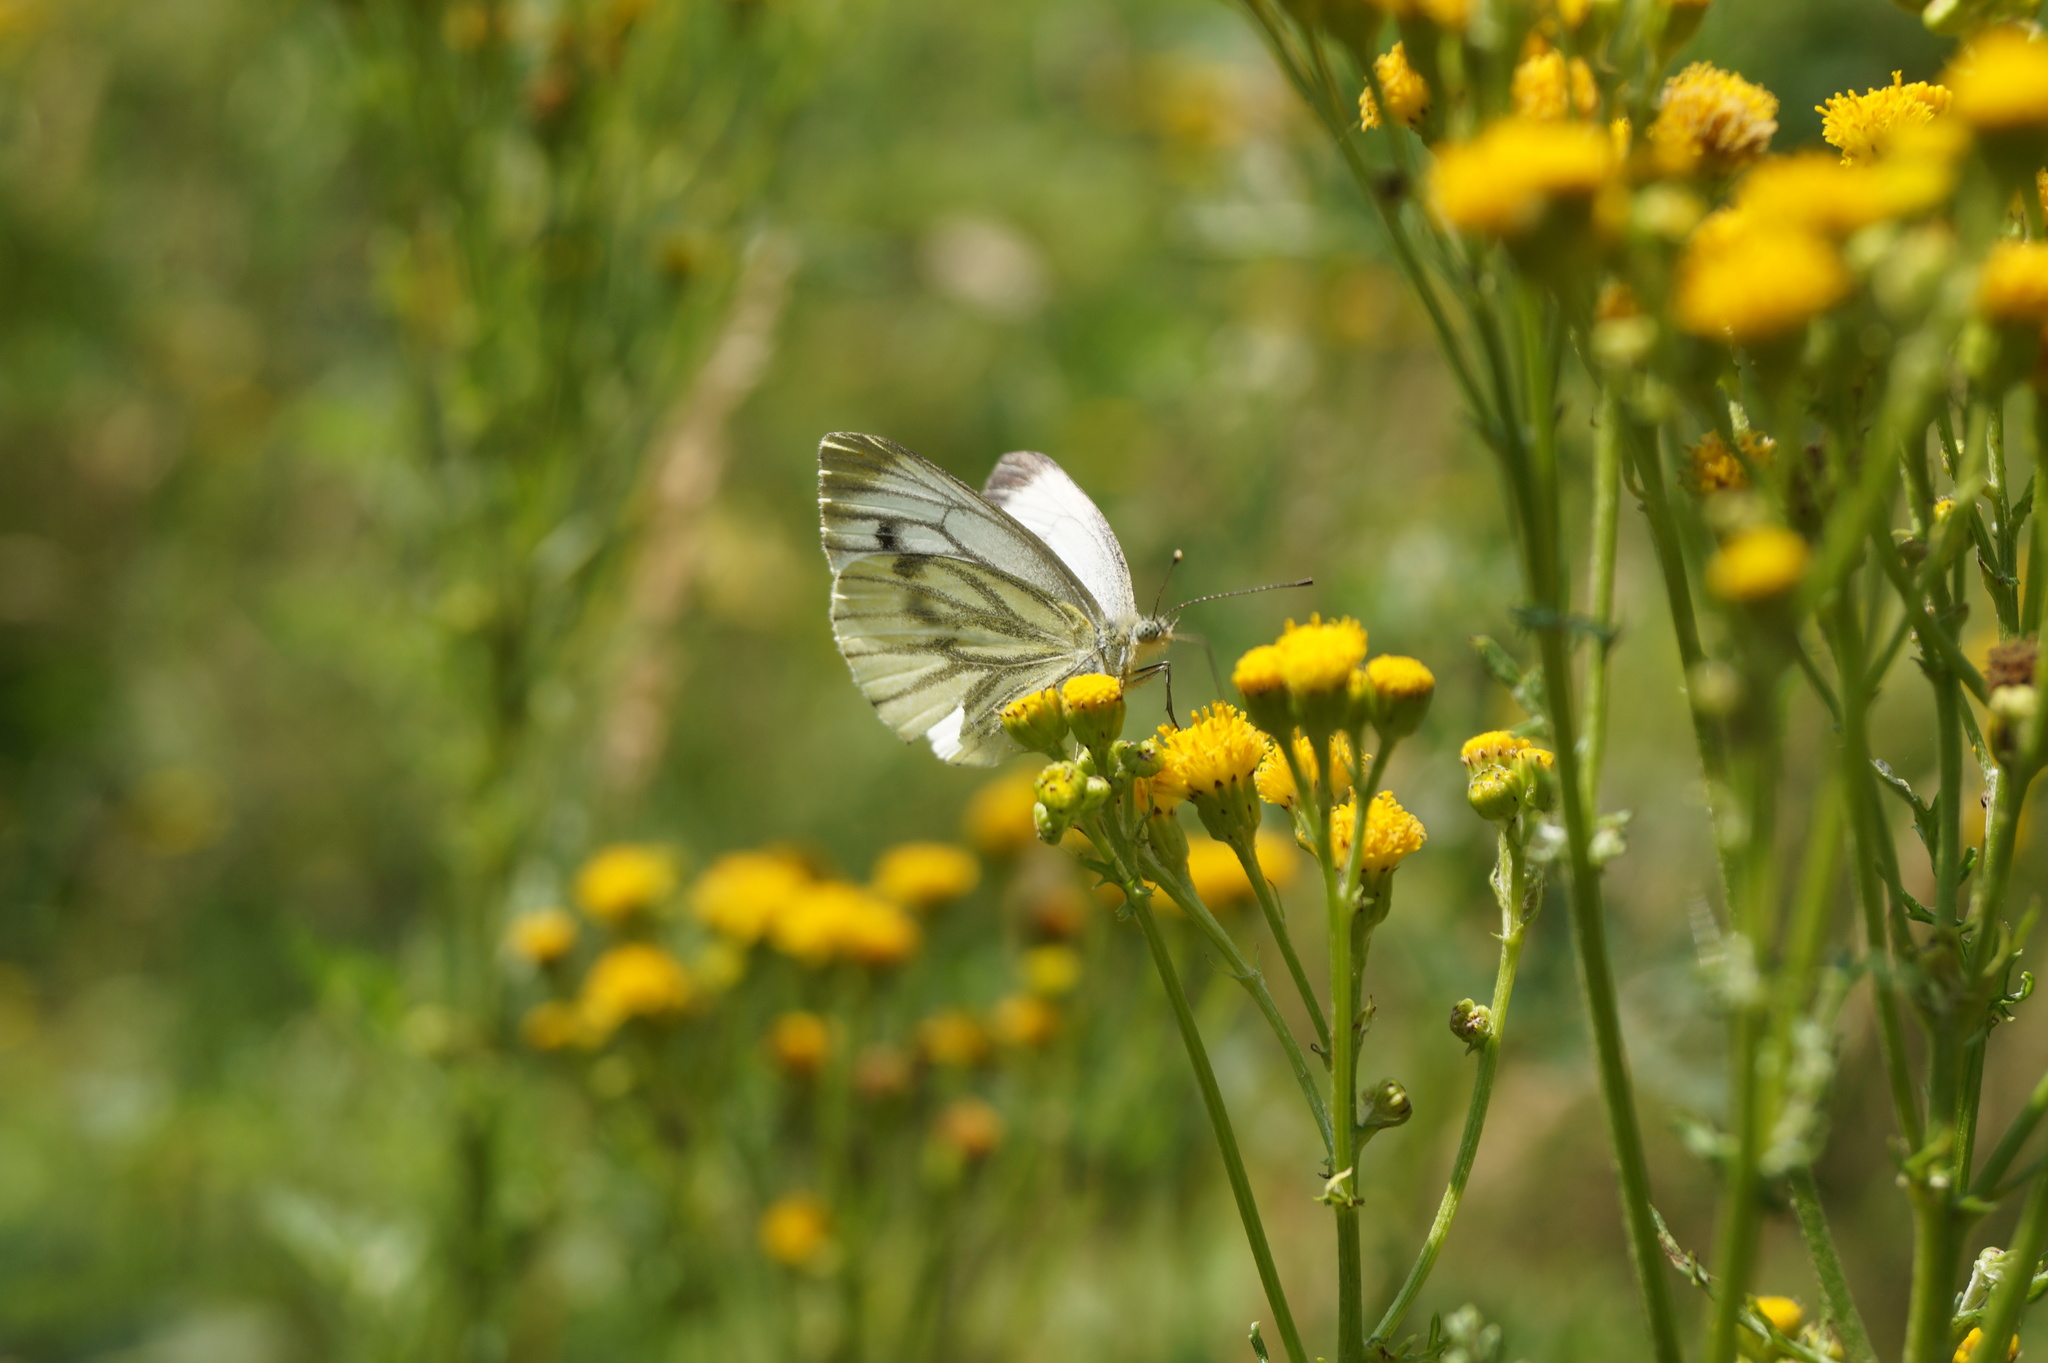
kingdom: Animalia
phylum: Arthropoda
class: Insecta
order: Lepidoptera
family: Pieridae
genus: Pieris
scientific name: Pieris napi
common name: Green-veined white
